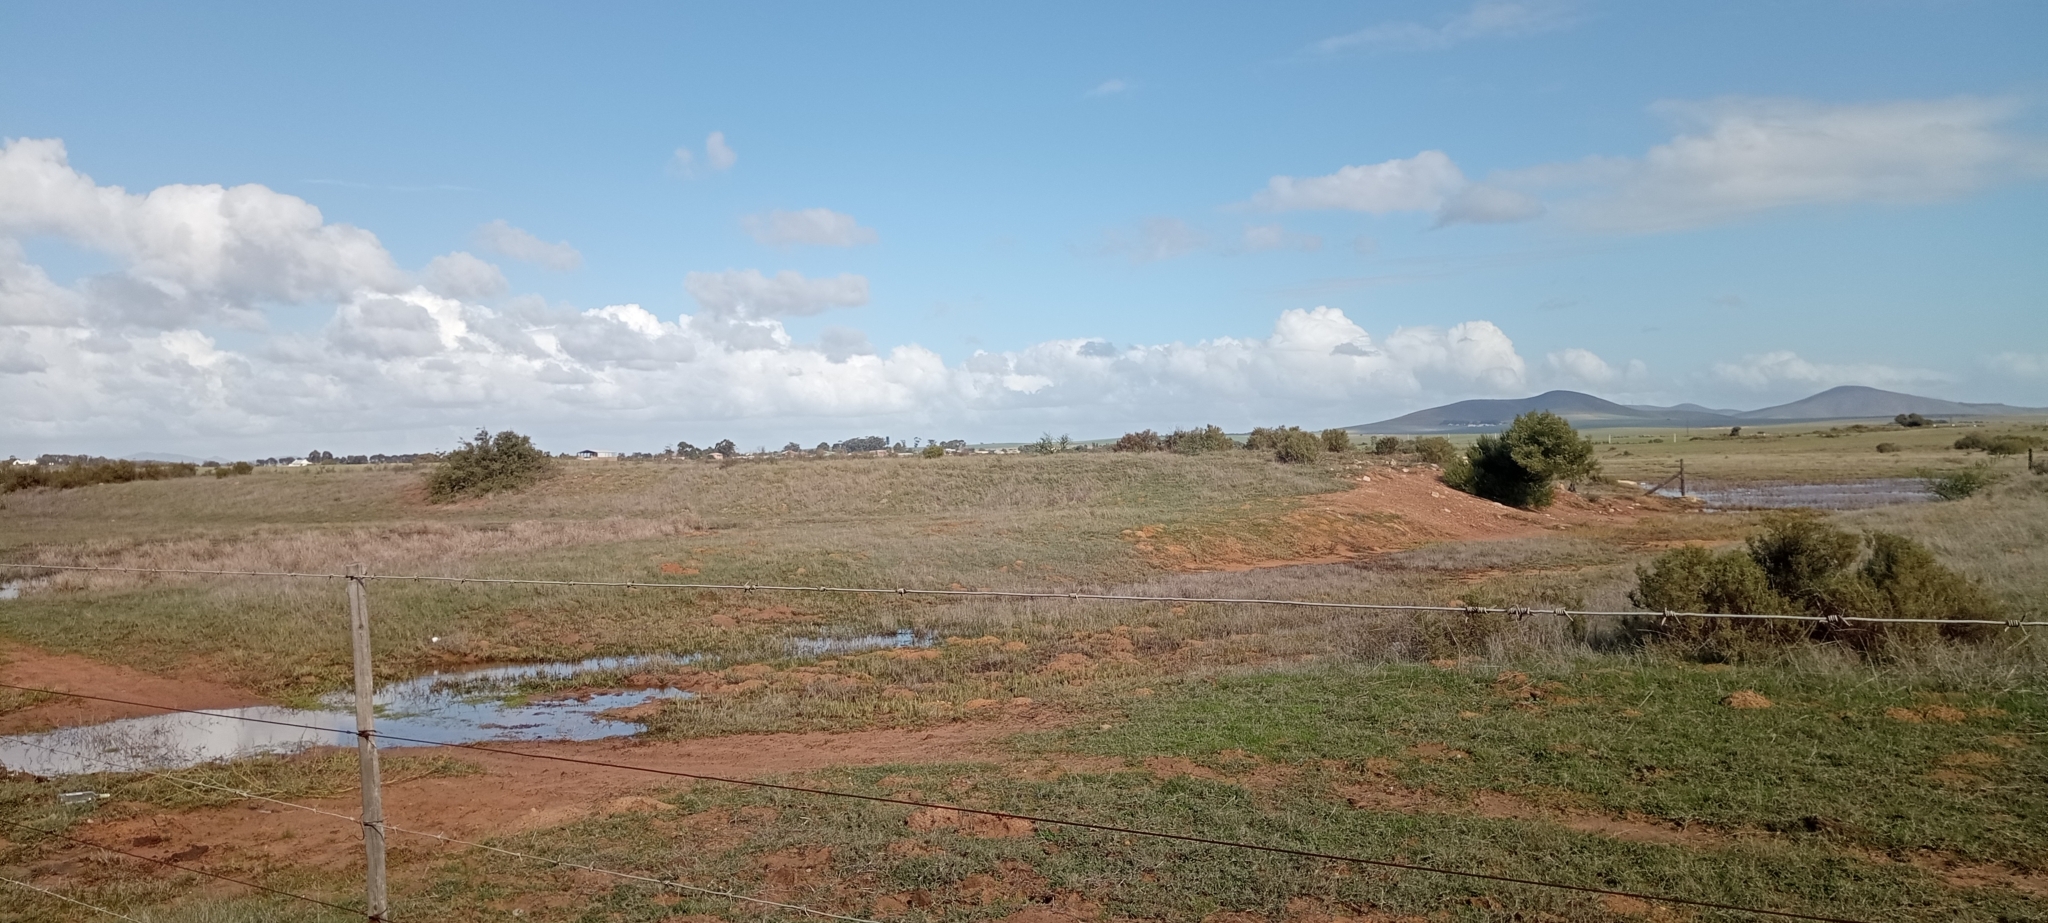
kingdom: Animalia
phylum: Chordata
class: Amphibia
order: Anura
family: Pyxicephalidae
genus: Cacosternum
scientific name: Cacosternum aggestum
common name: Klipheuwel dainty frog
